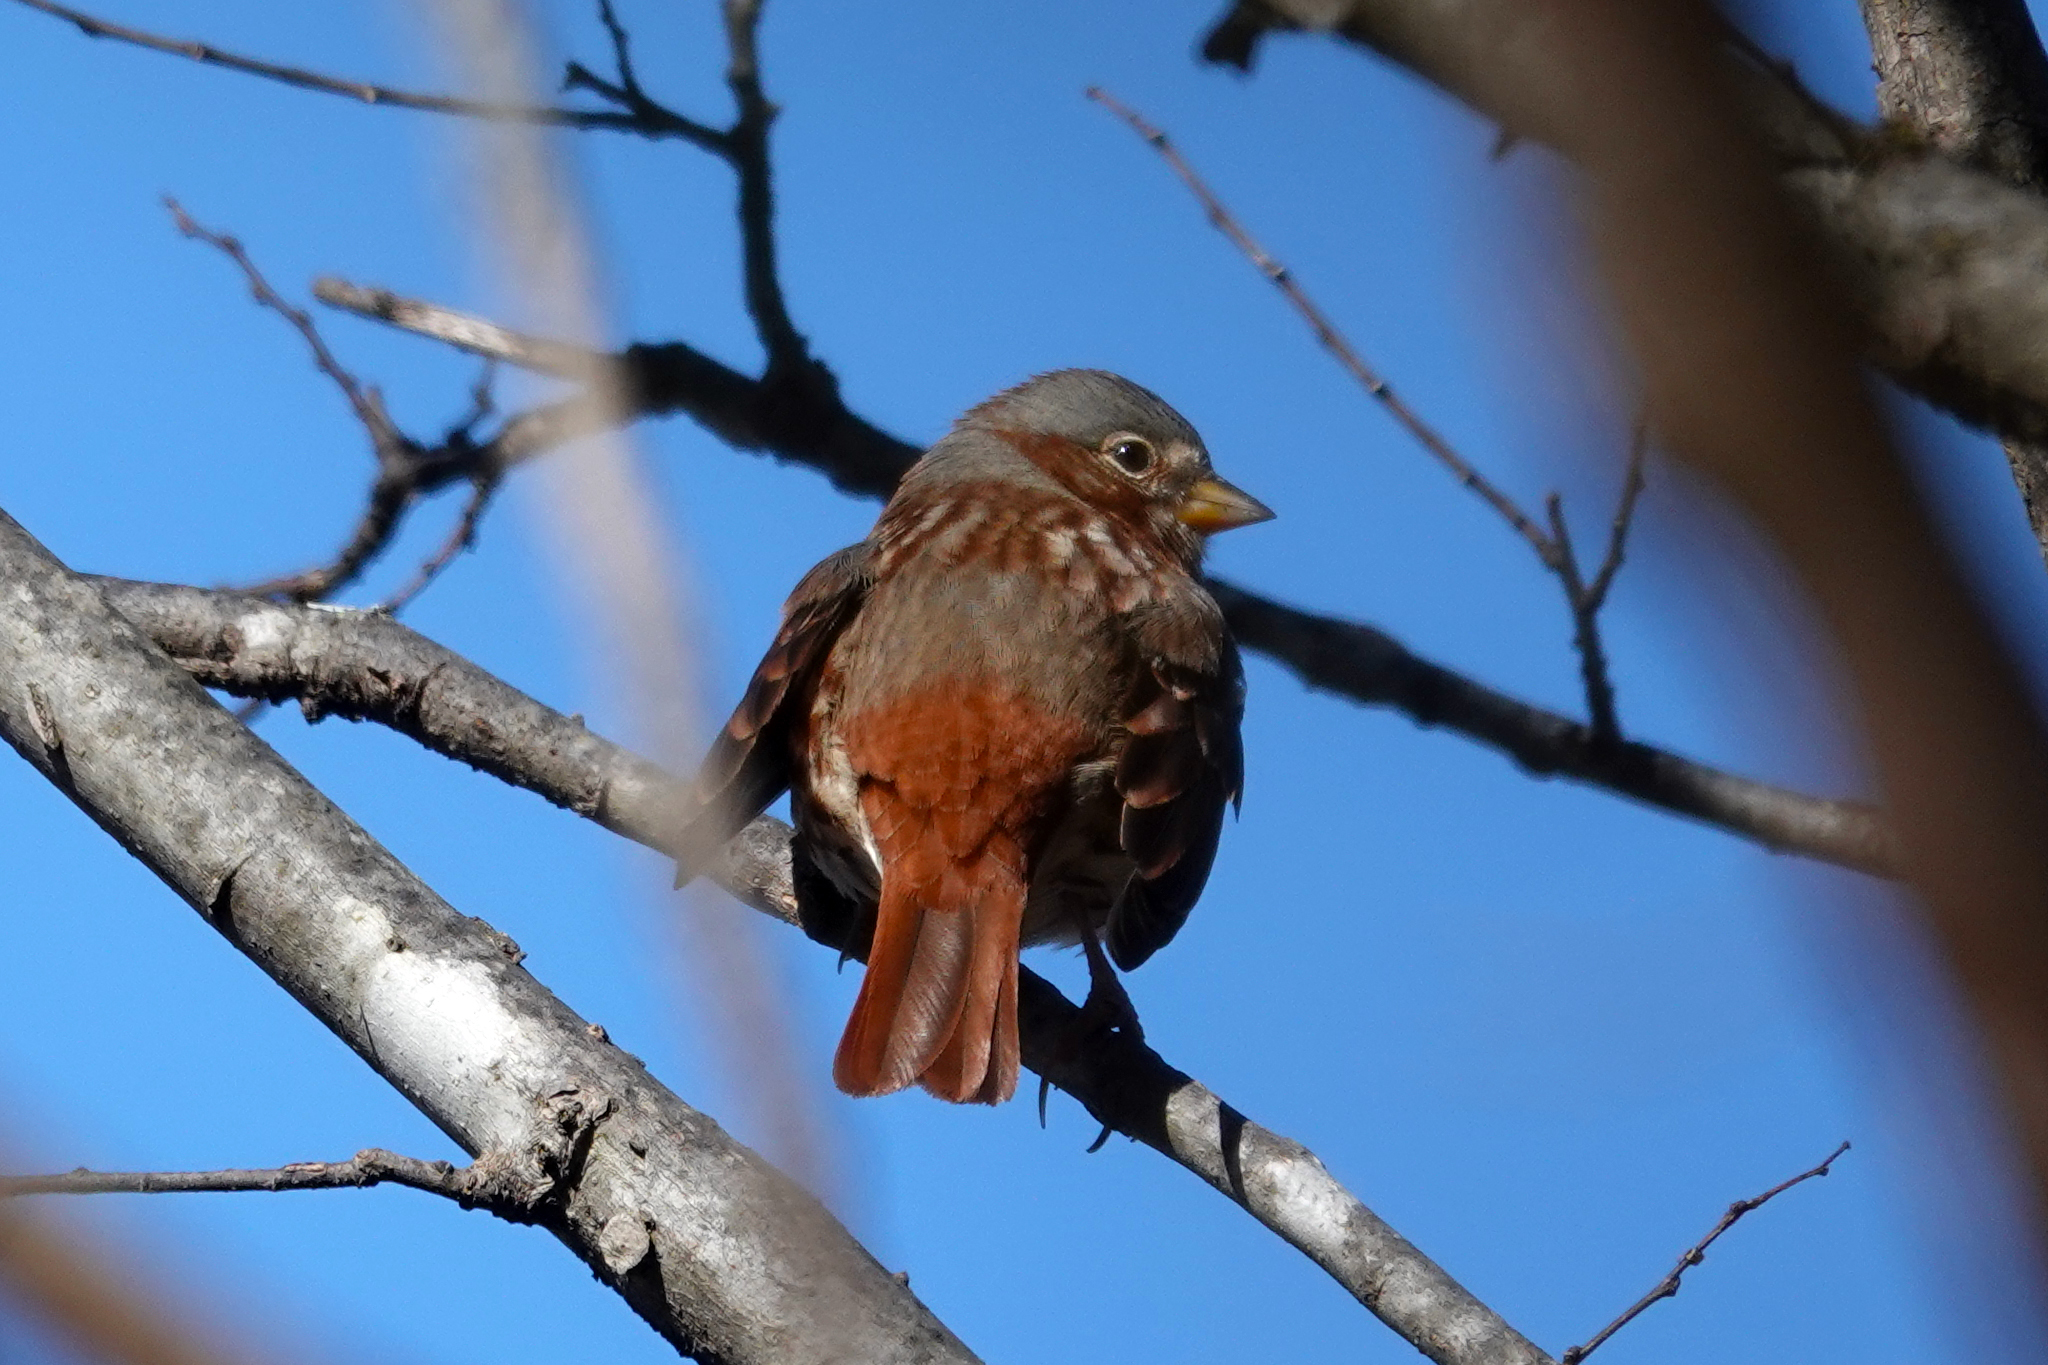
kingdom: Animalia
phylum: Chordata
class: Aves
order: Passeriformes
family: Passerellidae
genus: Passerella
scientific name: Passerella iliaca
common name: Fox sparrow
